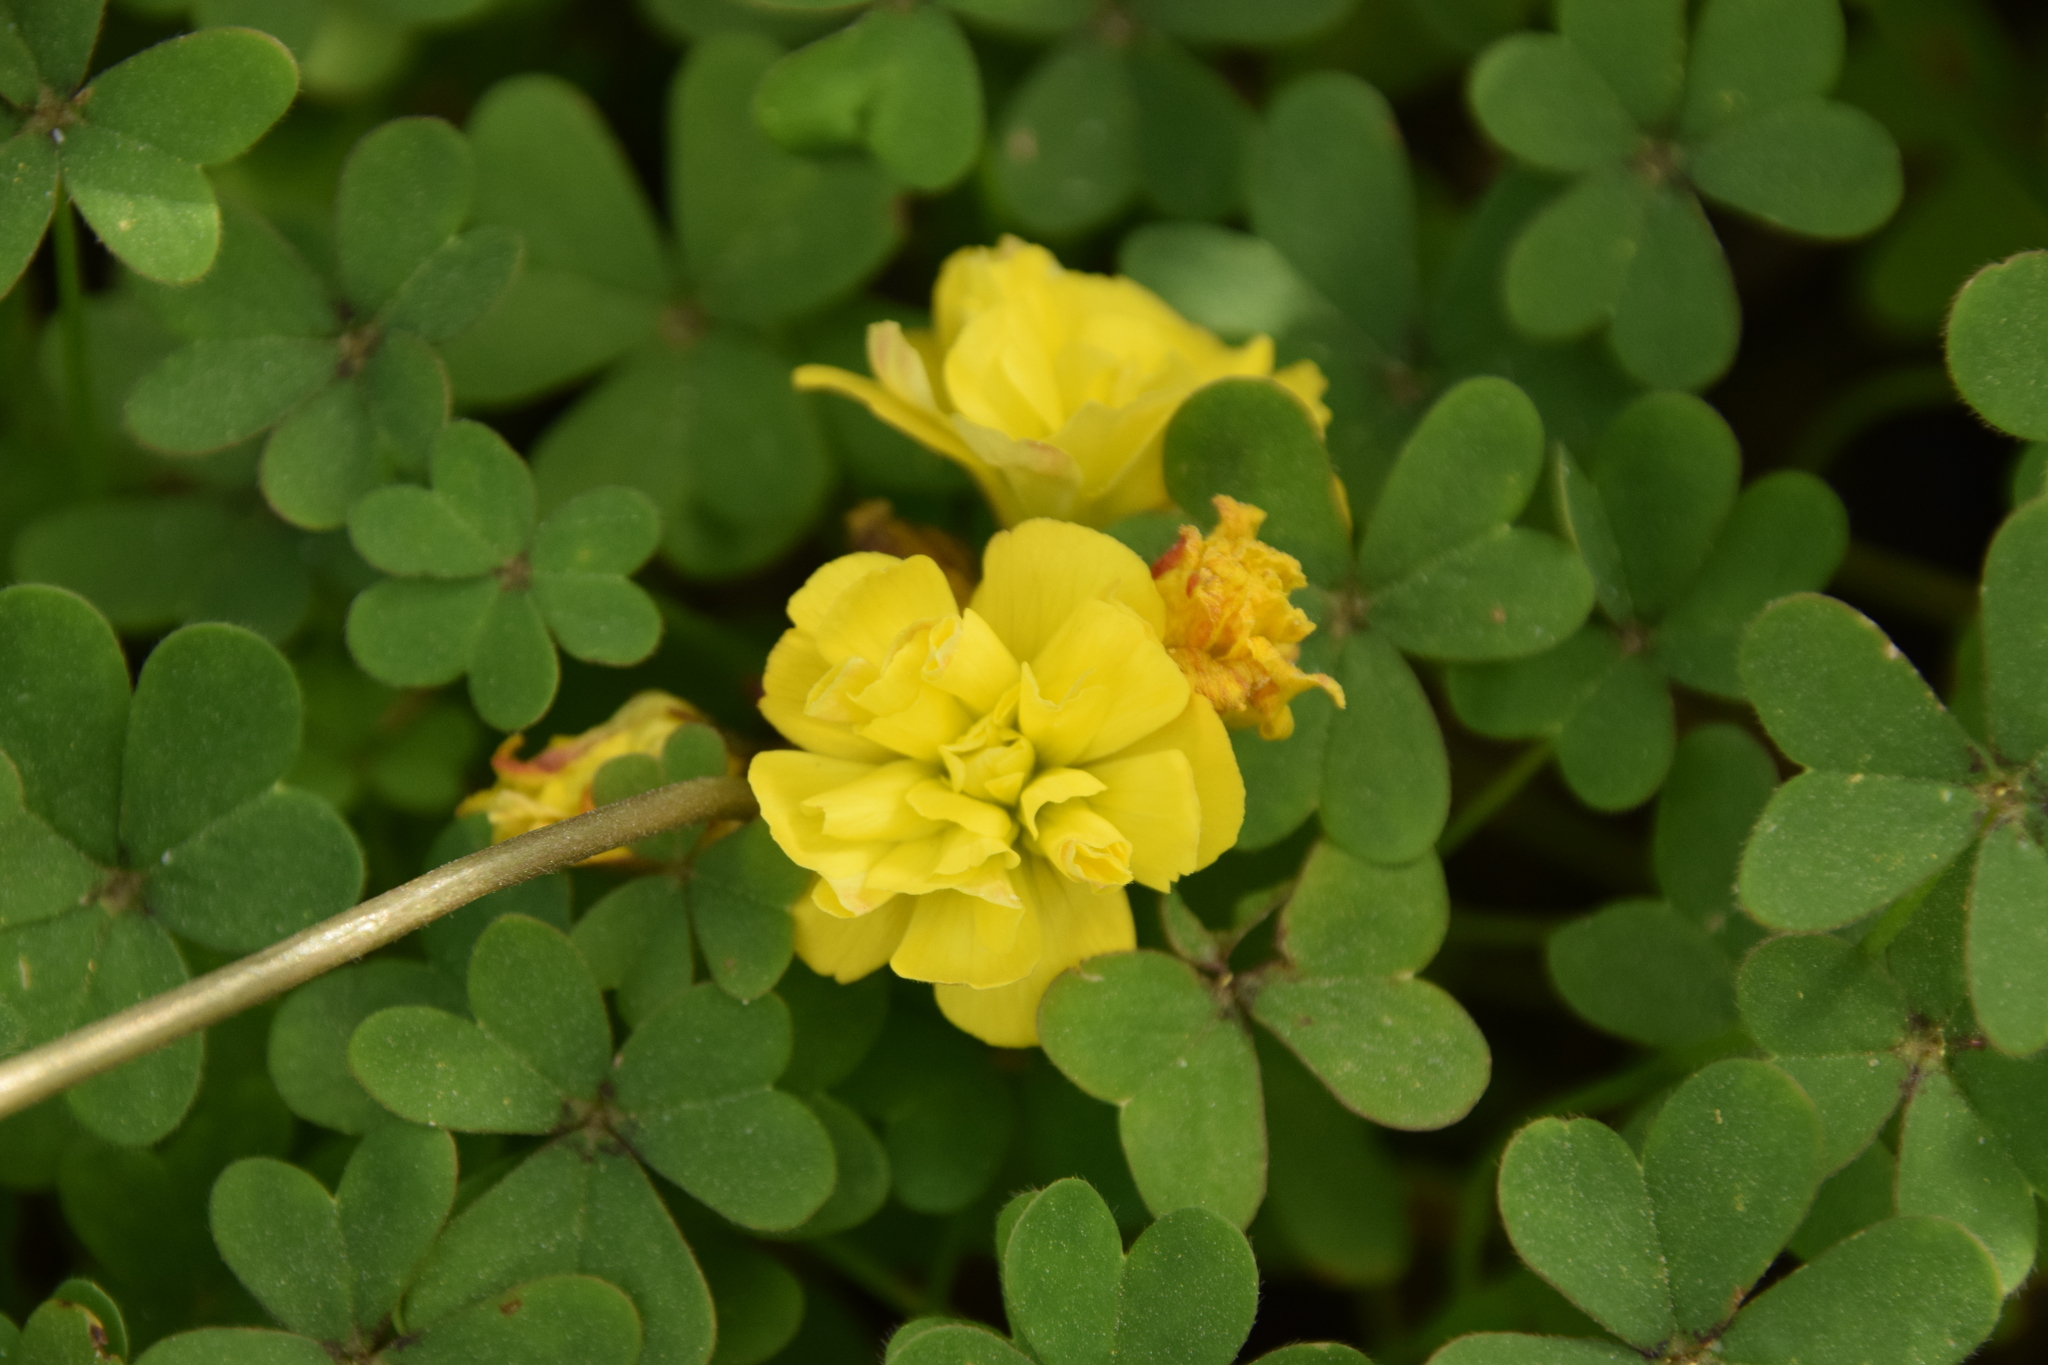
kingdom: Plantae
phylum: Tracheophyta
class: Magnoliopsida
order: Oxalidales
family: Oxalidaceae
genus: Oxalis
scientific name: Oxalis pes-caprae
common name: Bermuda-buttercup
